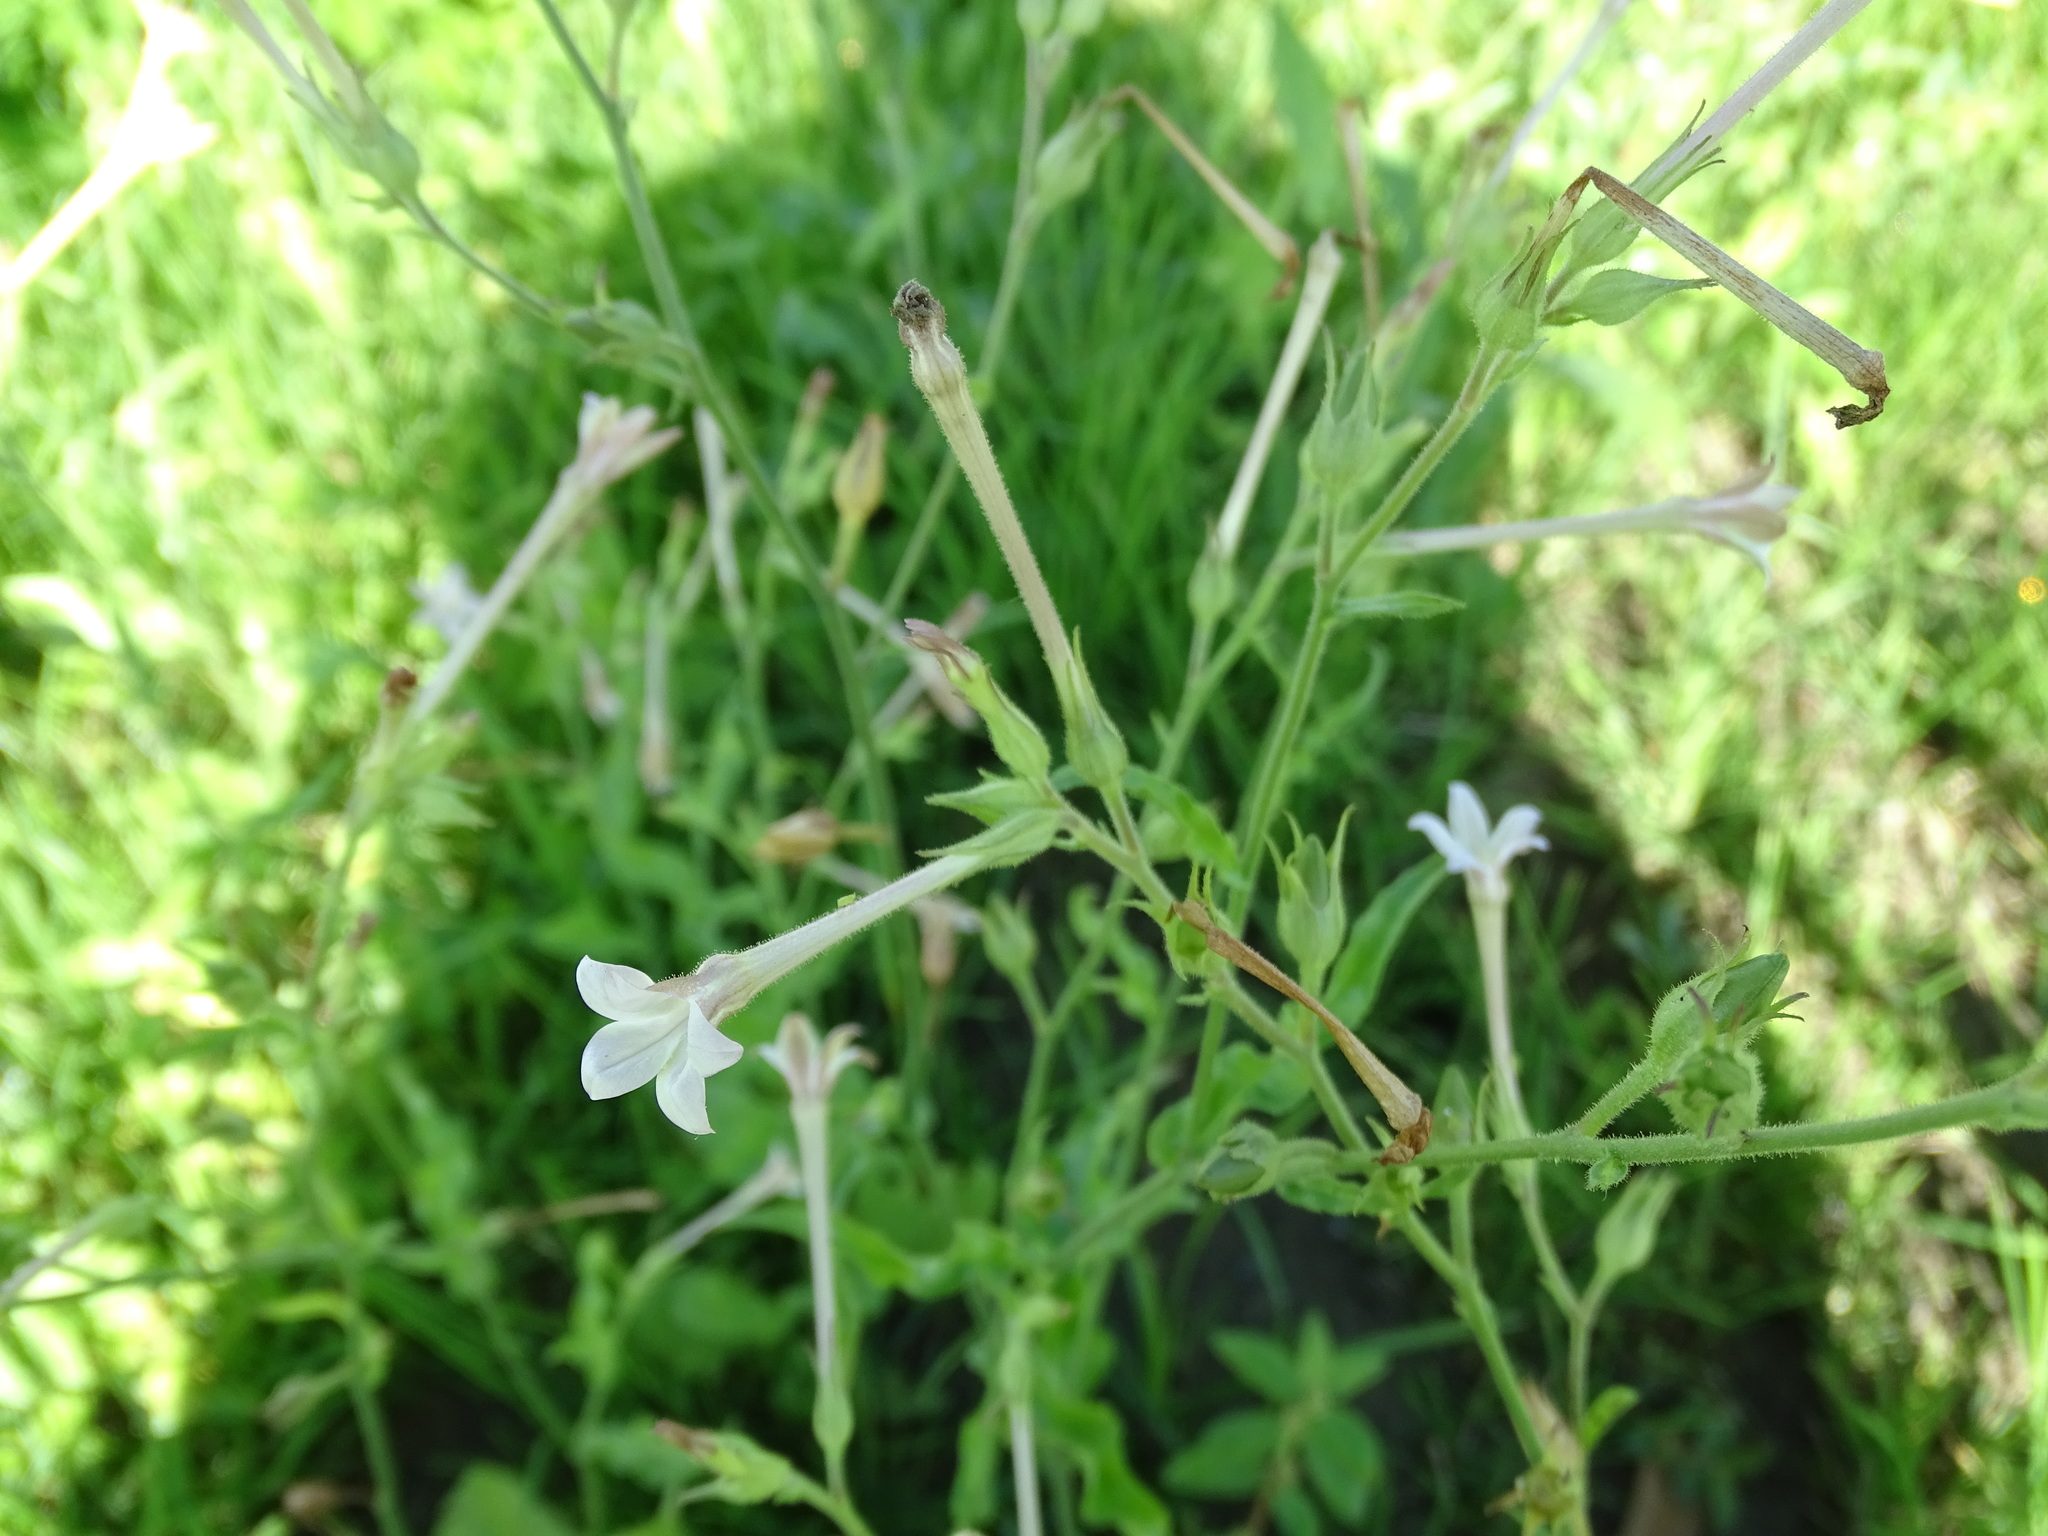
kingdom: Plantae
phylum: Tracheophyta
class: Magnoliopsida
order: Solanales
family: Solanaceae
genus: Nicotiana
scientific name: Nicotiana plumbaginifolia
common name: Tex-mex tobacco
